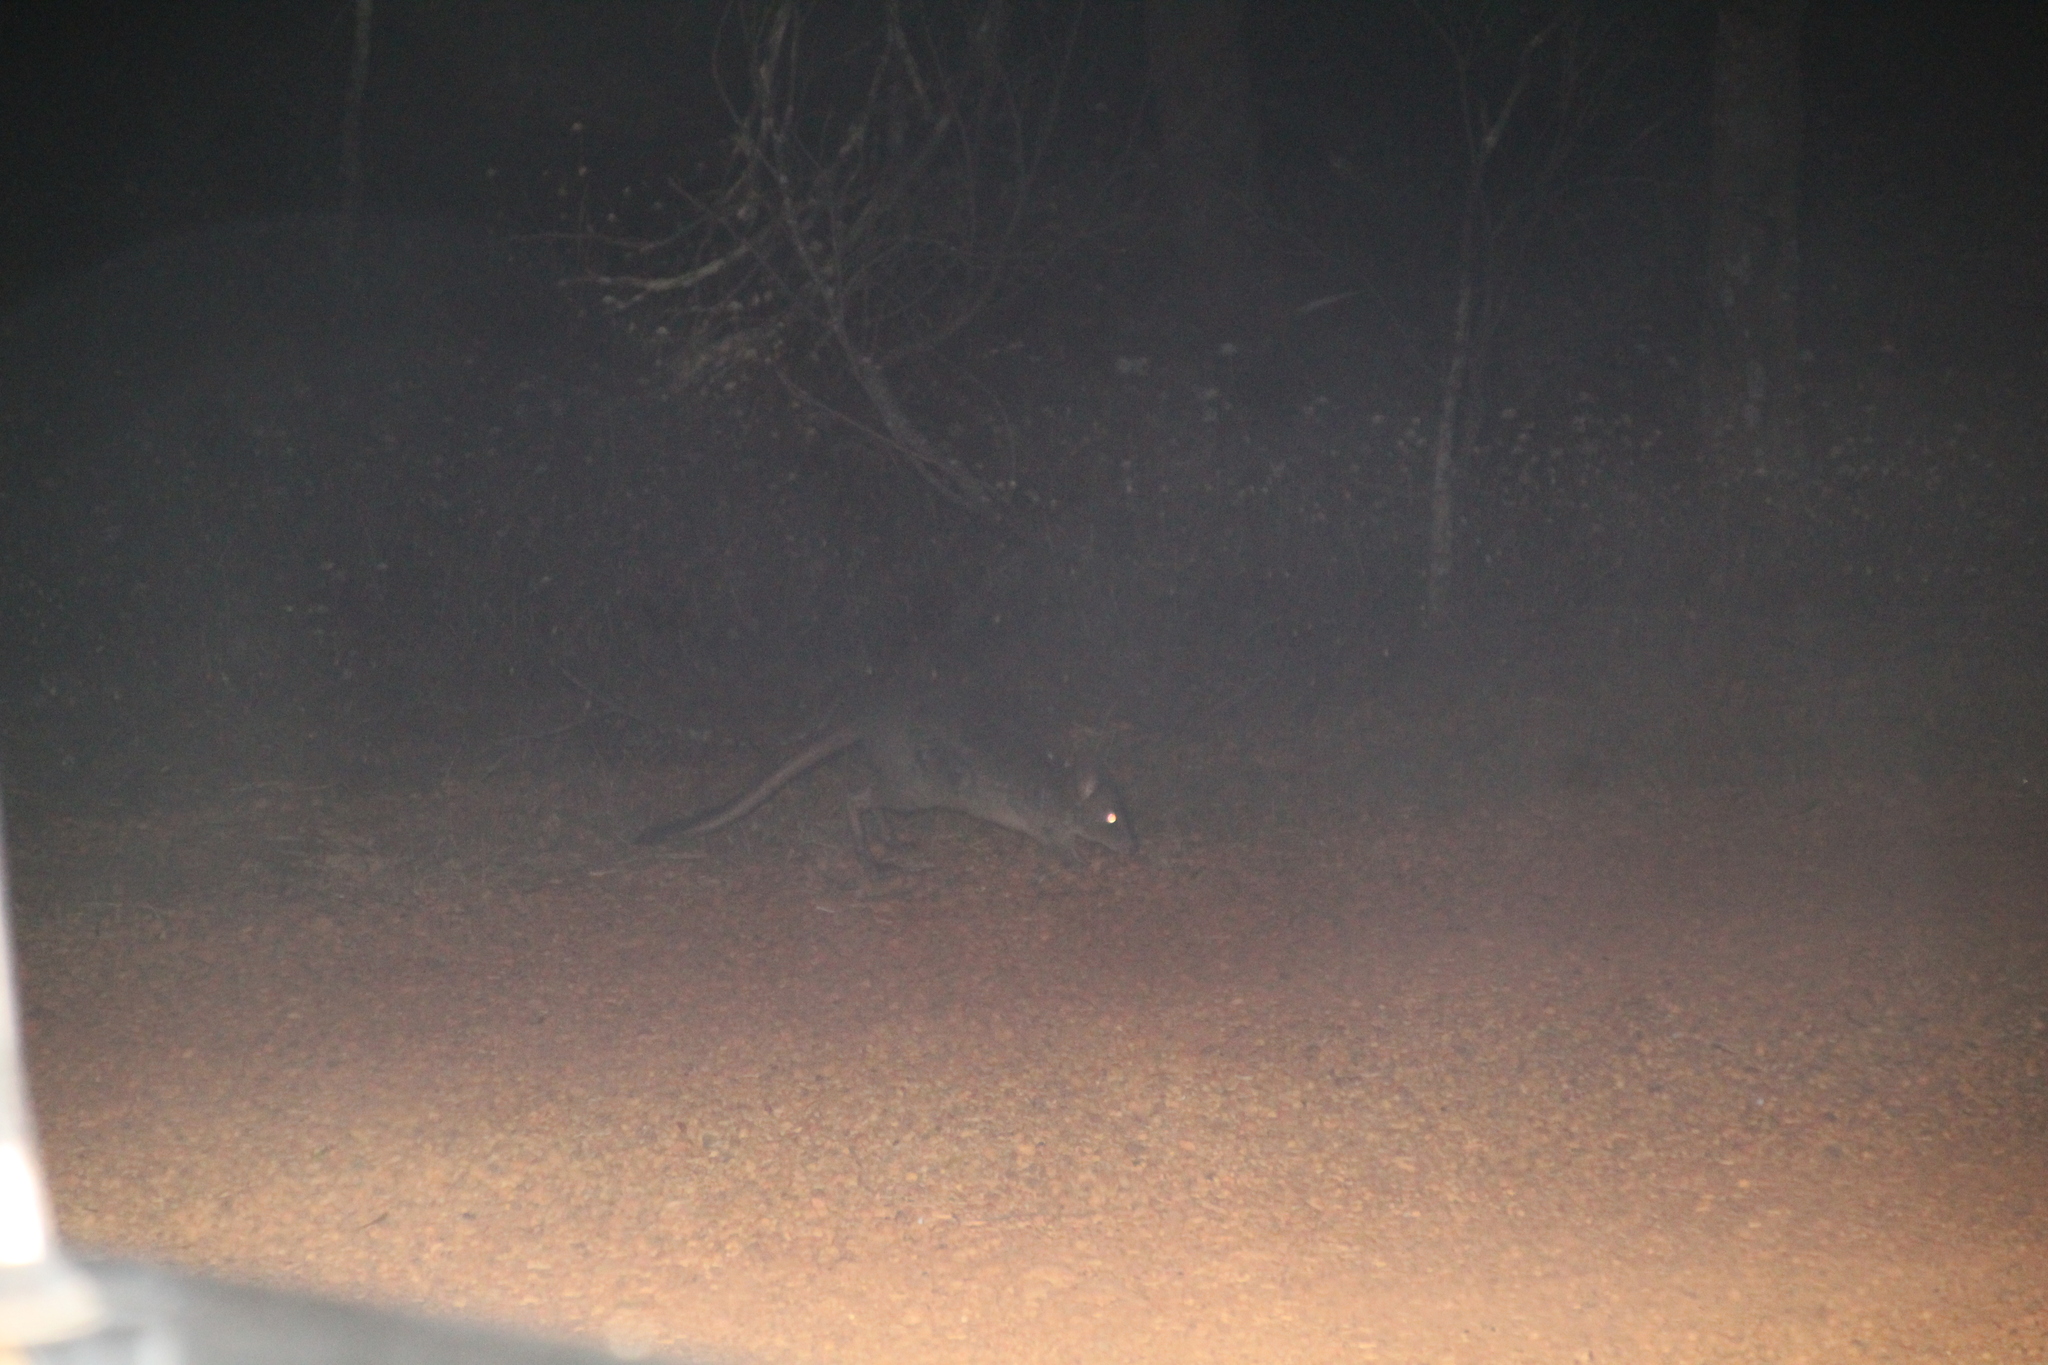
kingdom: Animalia
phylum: Chordata
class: Mammalia
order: Diprotodontia
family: Potoroidae
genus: Bettongia
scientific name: Bettongia penicillata
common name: Brush-tailed bettong
